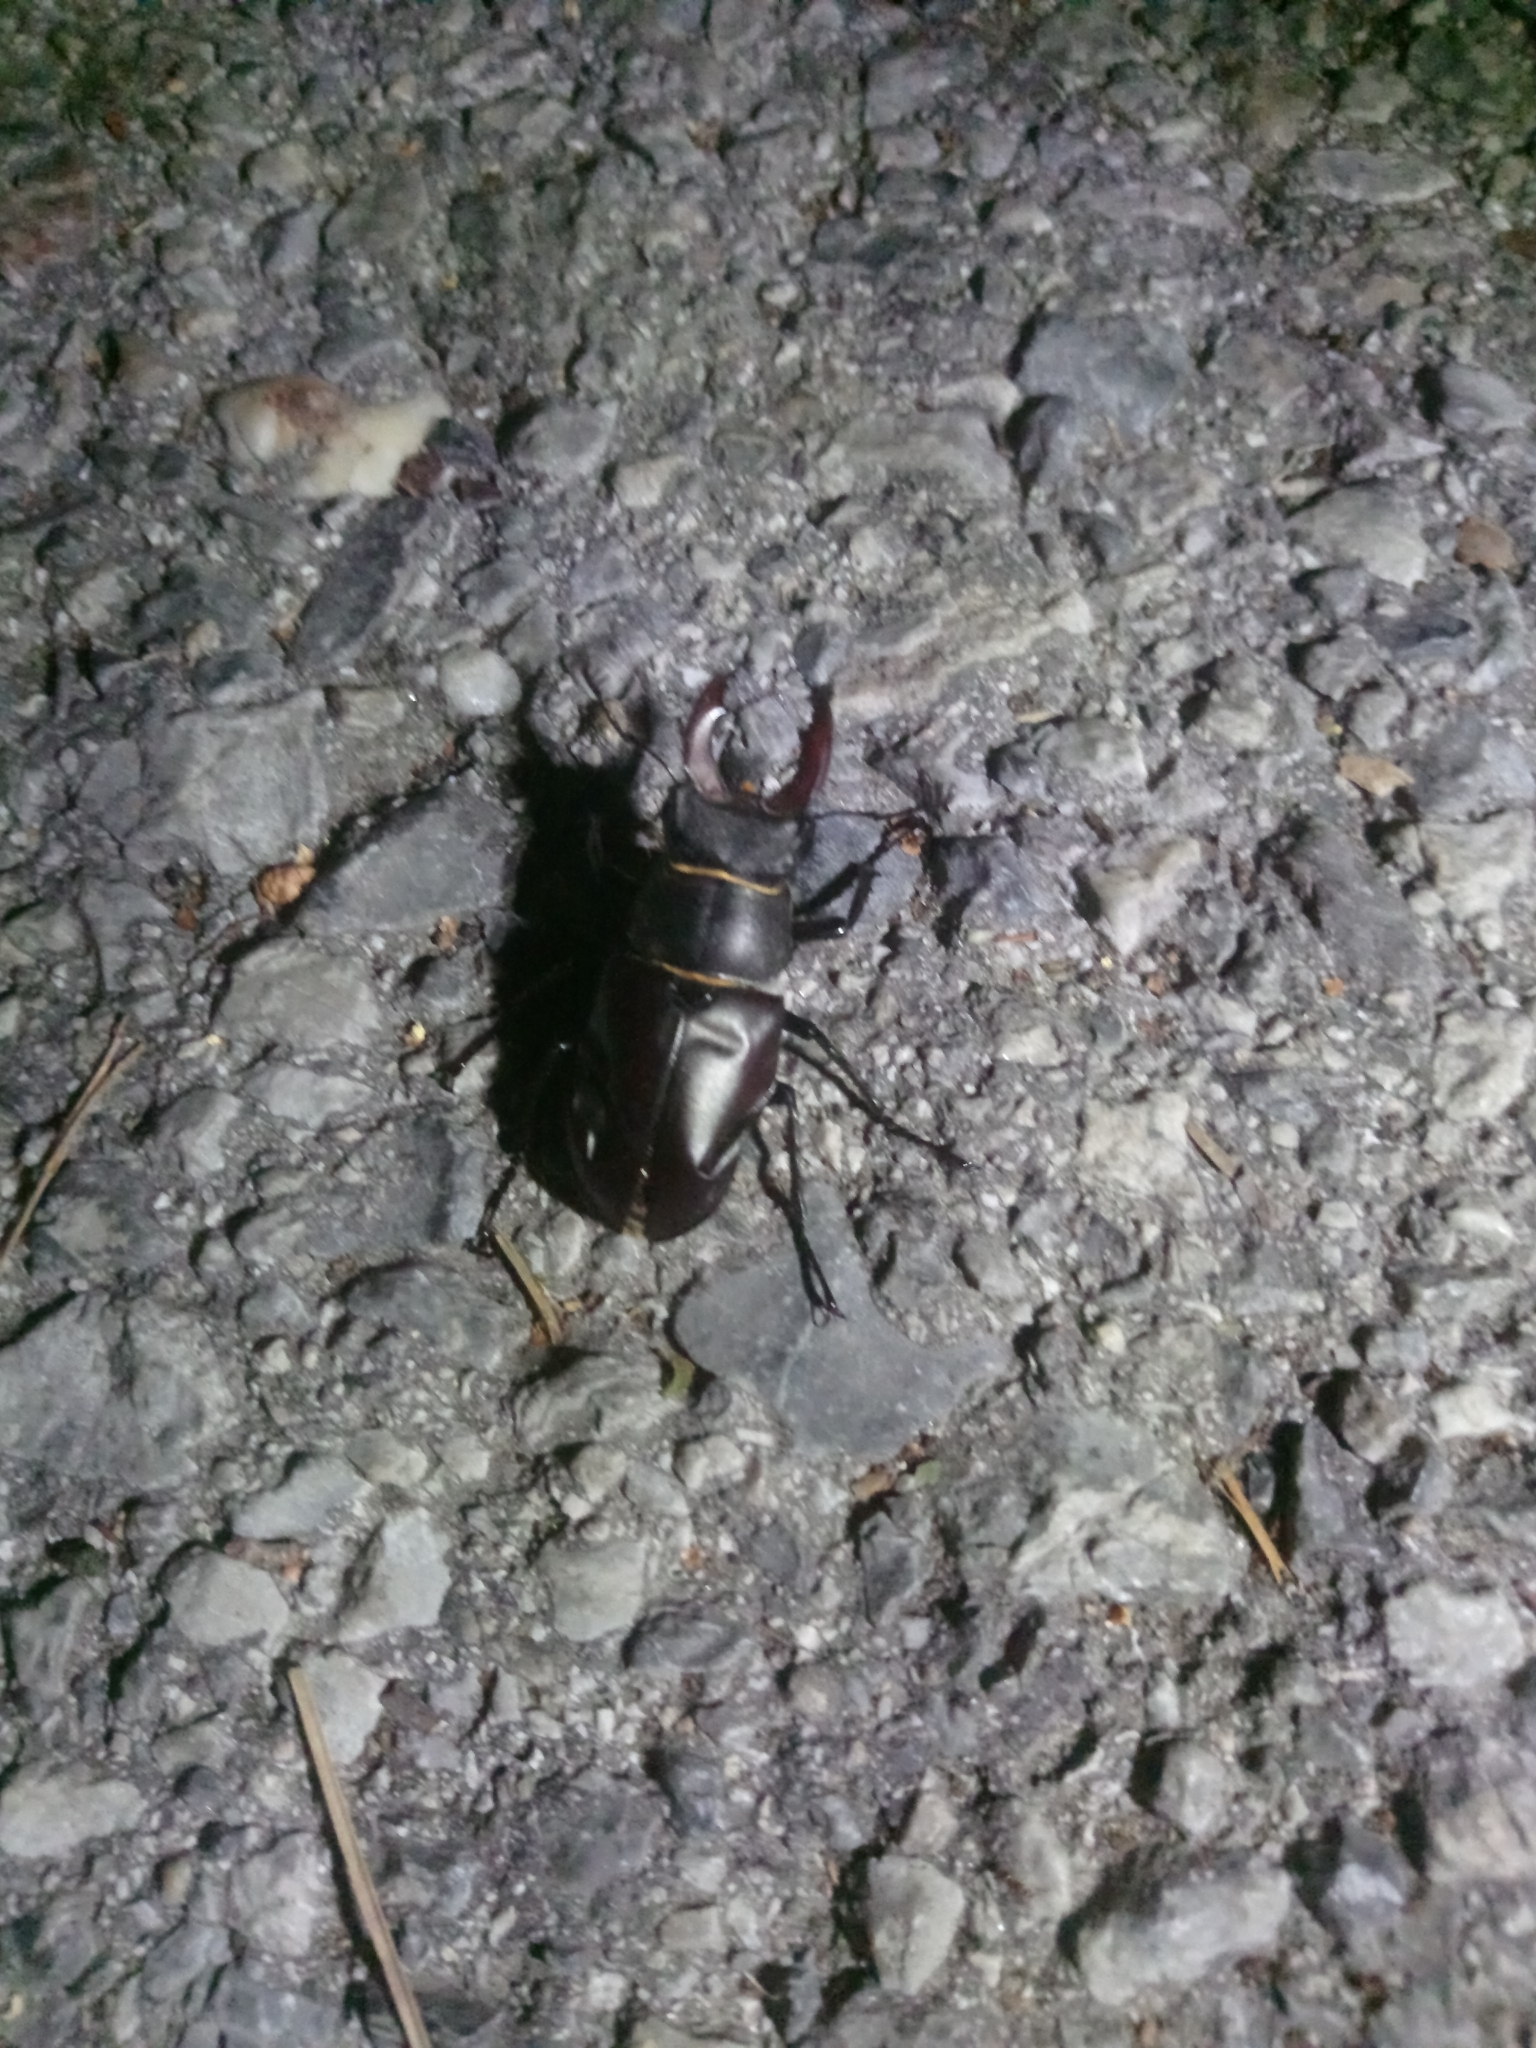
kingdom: Animalia
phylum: Arthropoda
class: Insecta
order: Coleoptera
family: Lucanidae
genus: Lucanus
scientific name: Lucanus cervus
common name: Stag beetle
